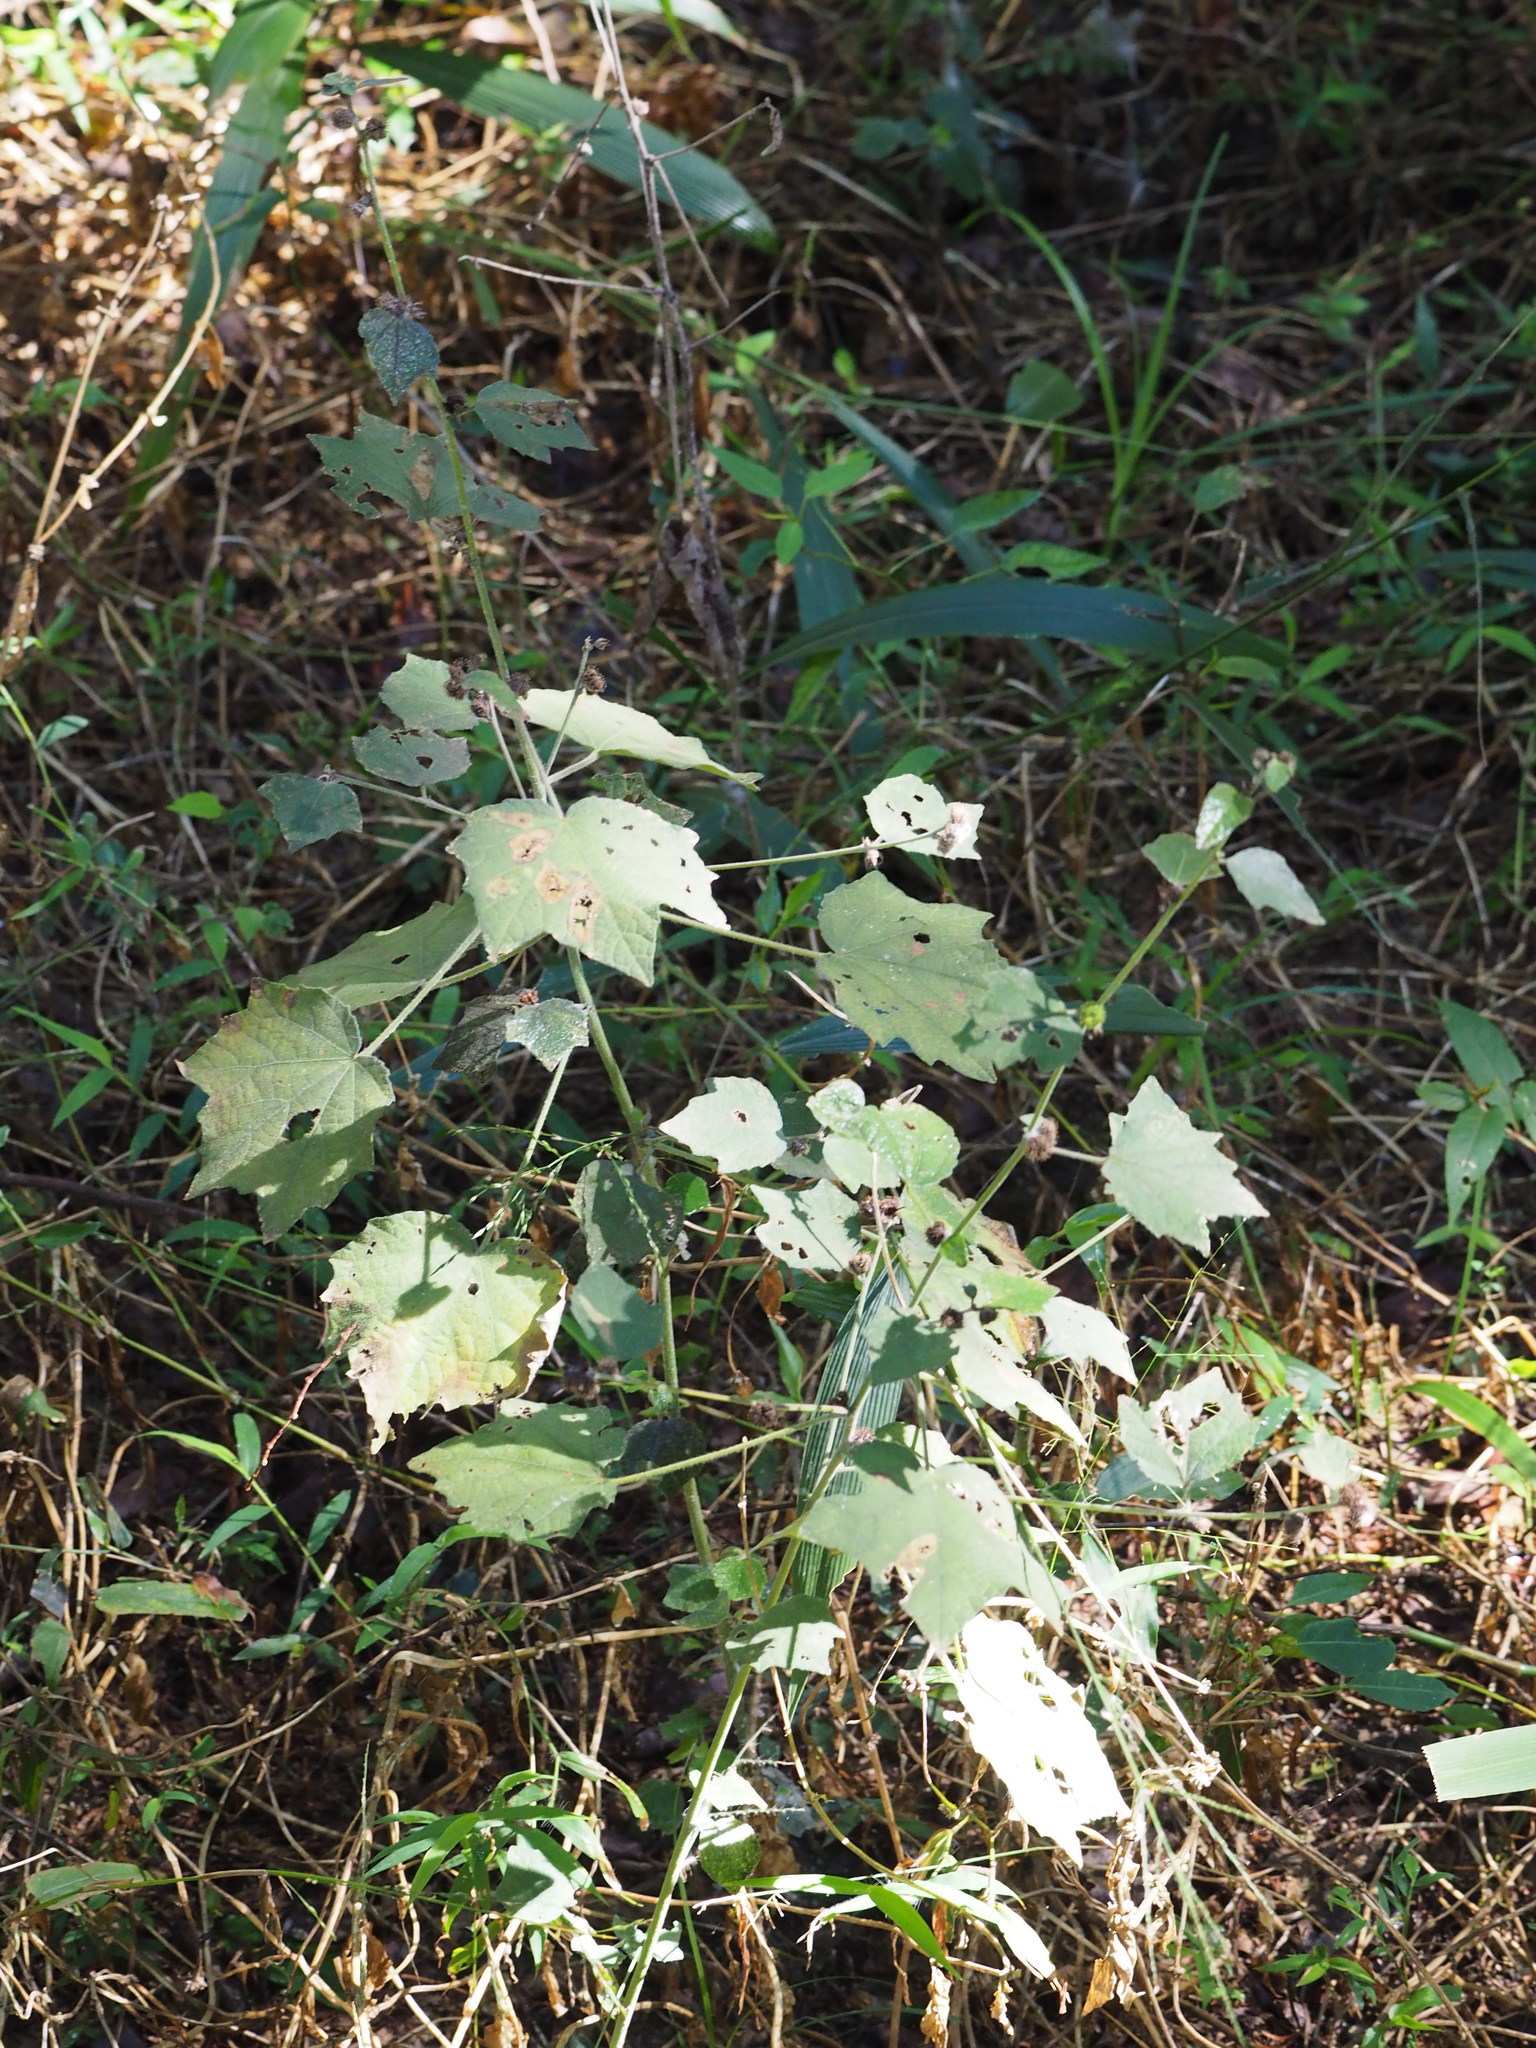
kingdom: Plantae
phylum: Tracheophyta
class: Magnoliopsida
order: Malvales
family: Malvaceae
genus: Urena
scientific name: Urena lobata
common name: Caesarweed
